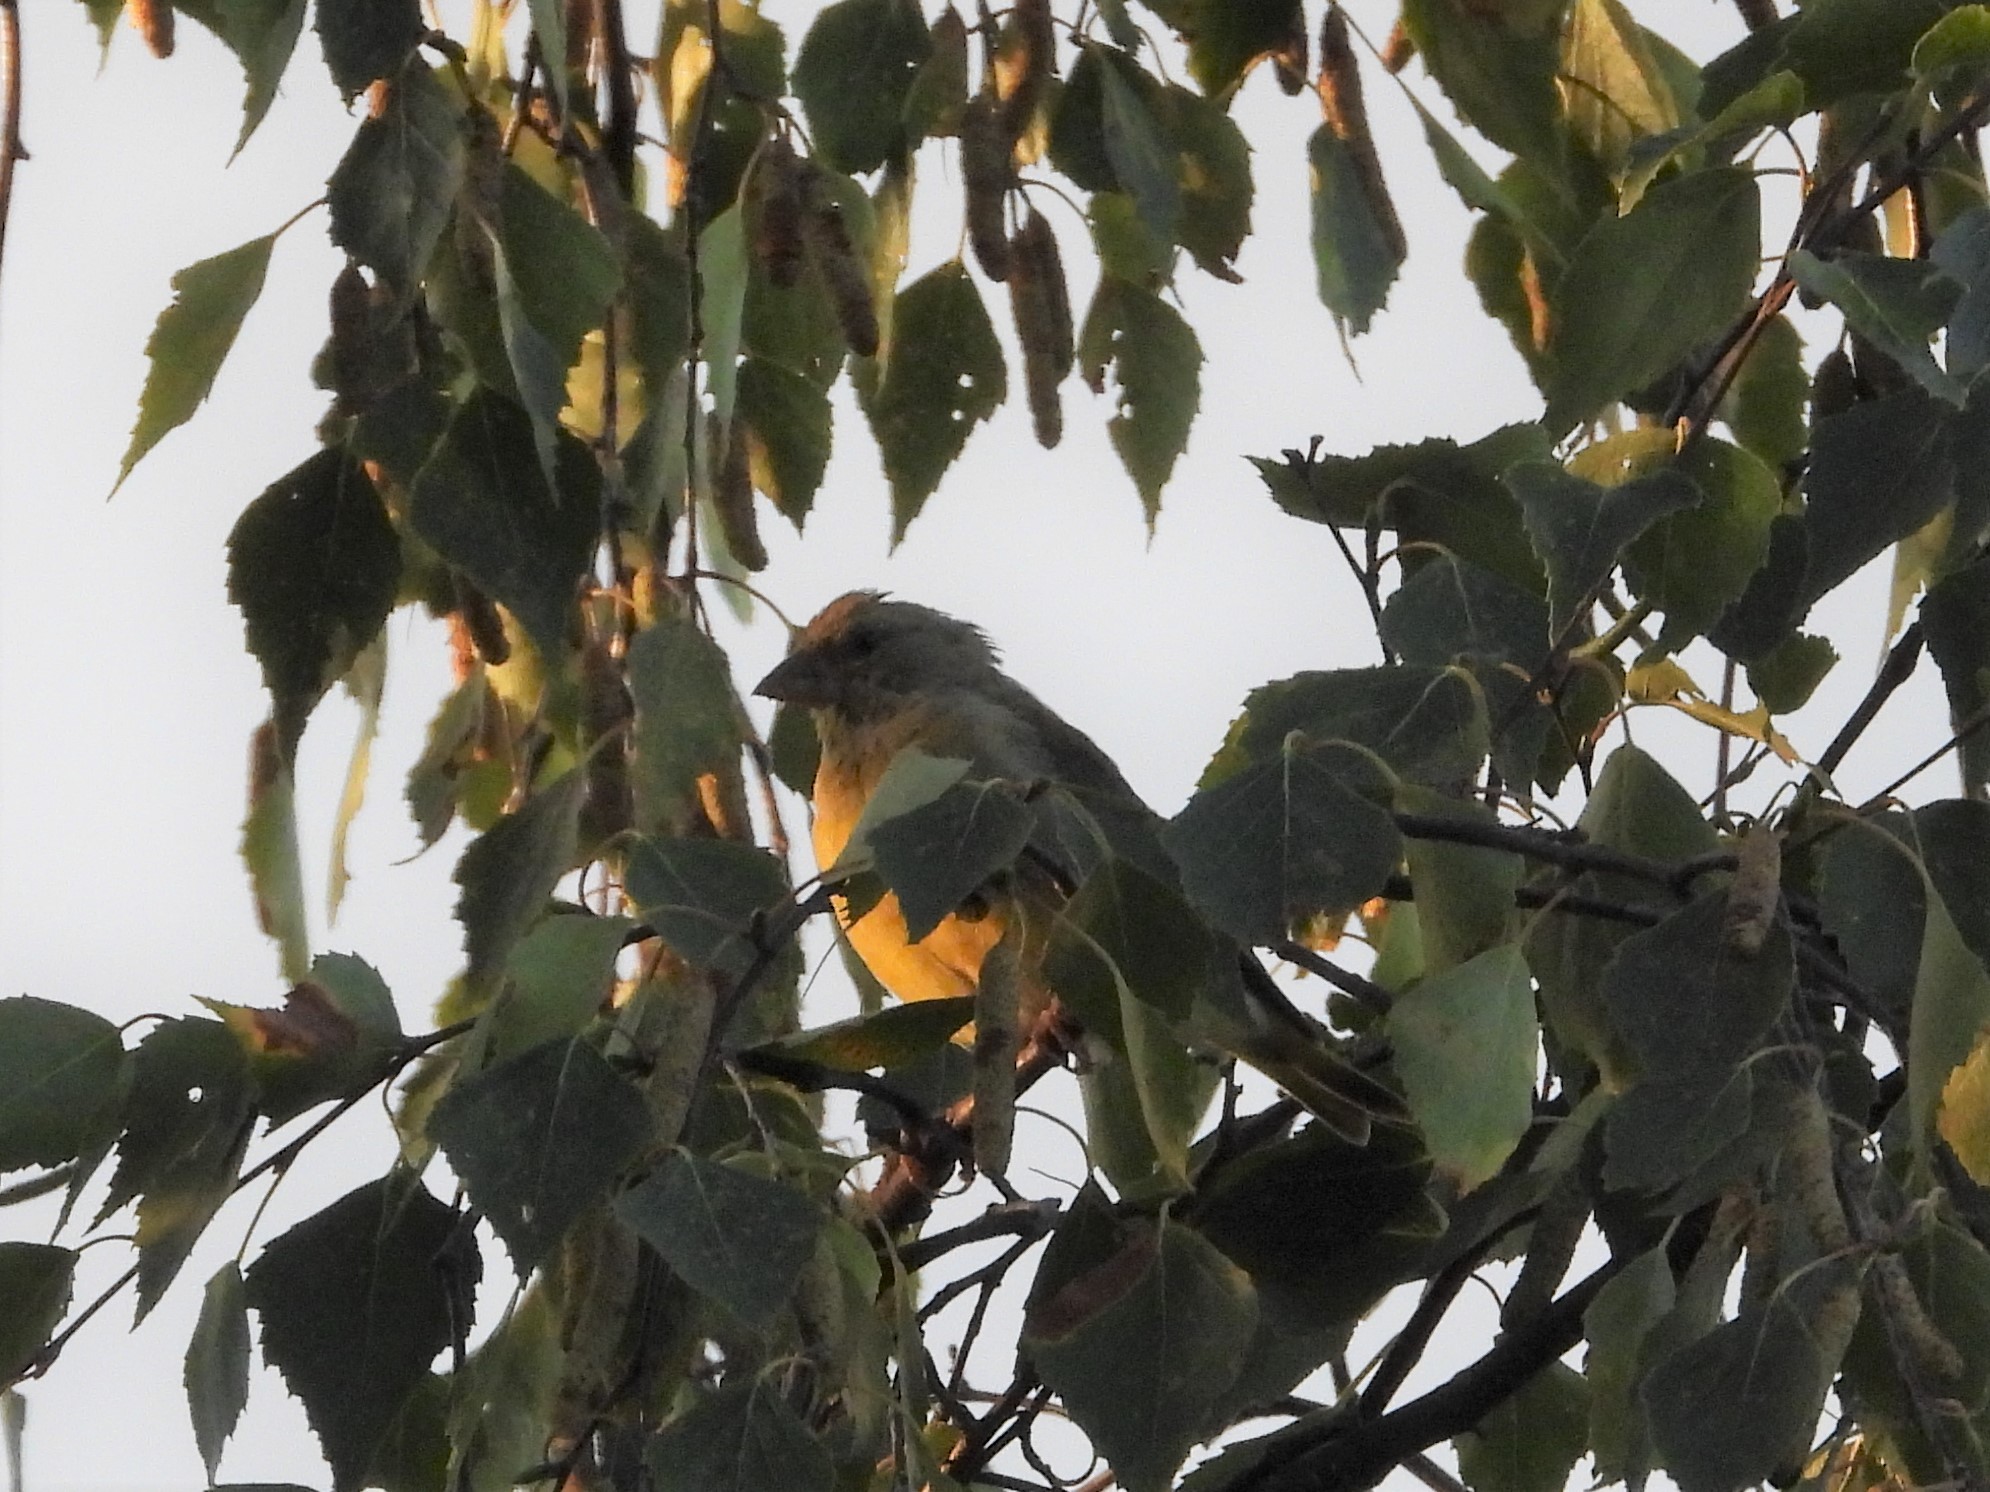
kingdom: Plantae
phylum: Tracheophyta
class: Liliopsida
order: Poales
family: Poaceae
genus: Chloris
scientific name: Chloris chloris
